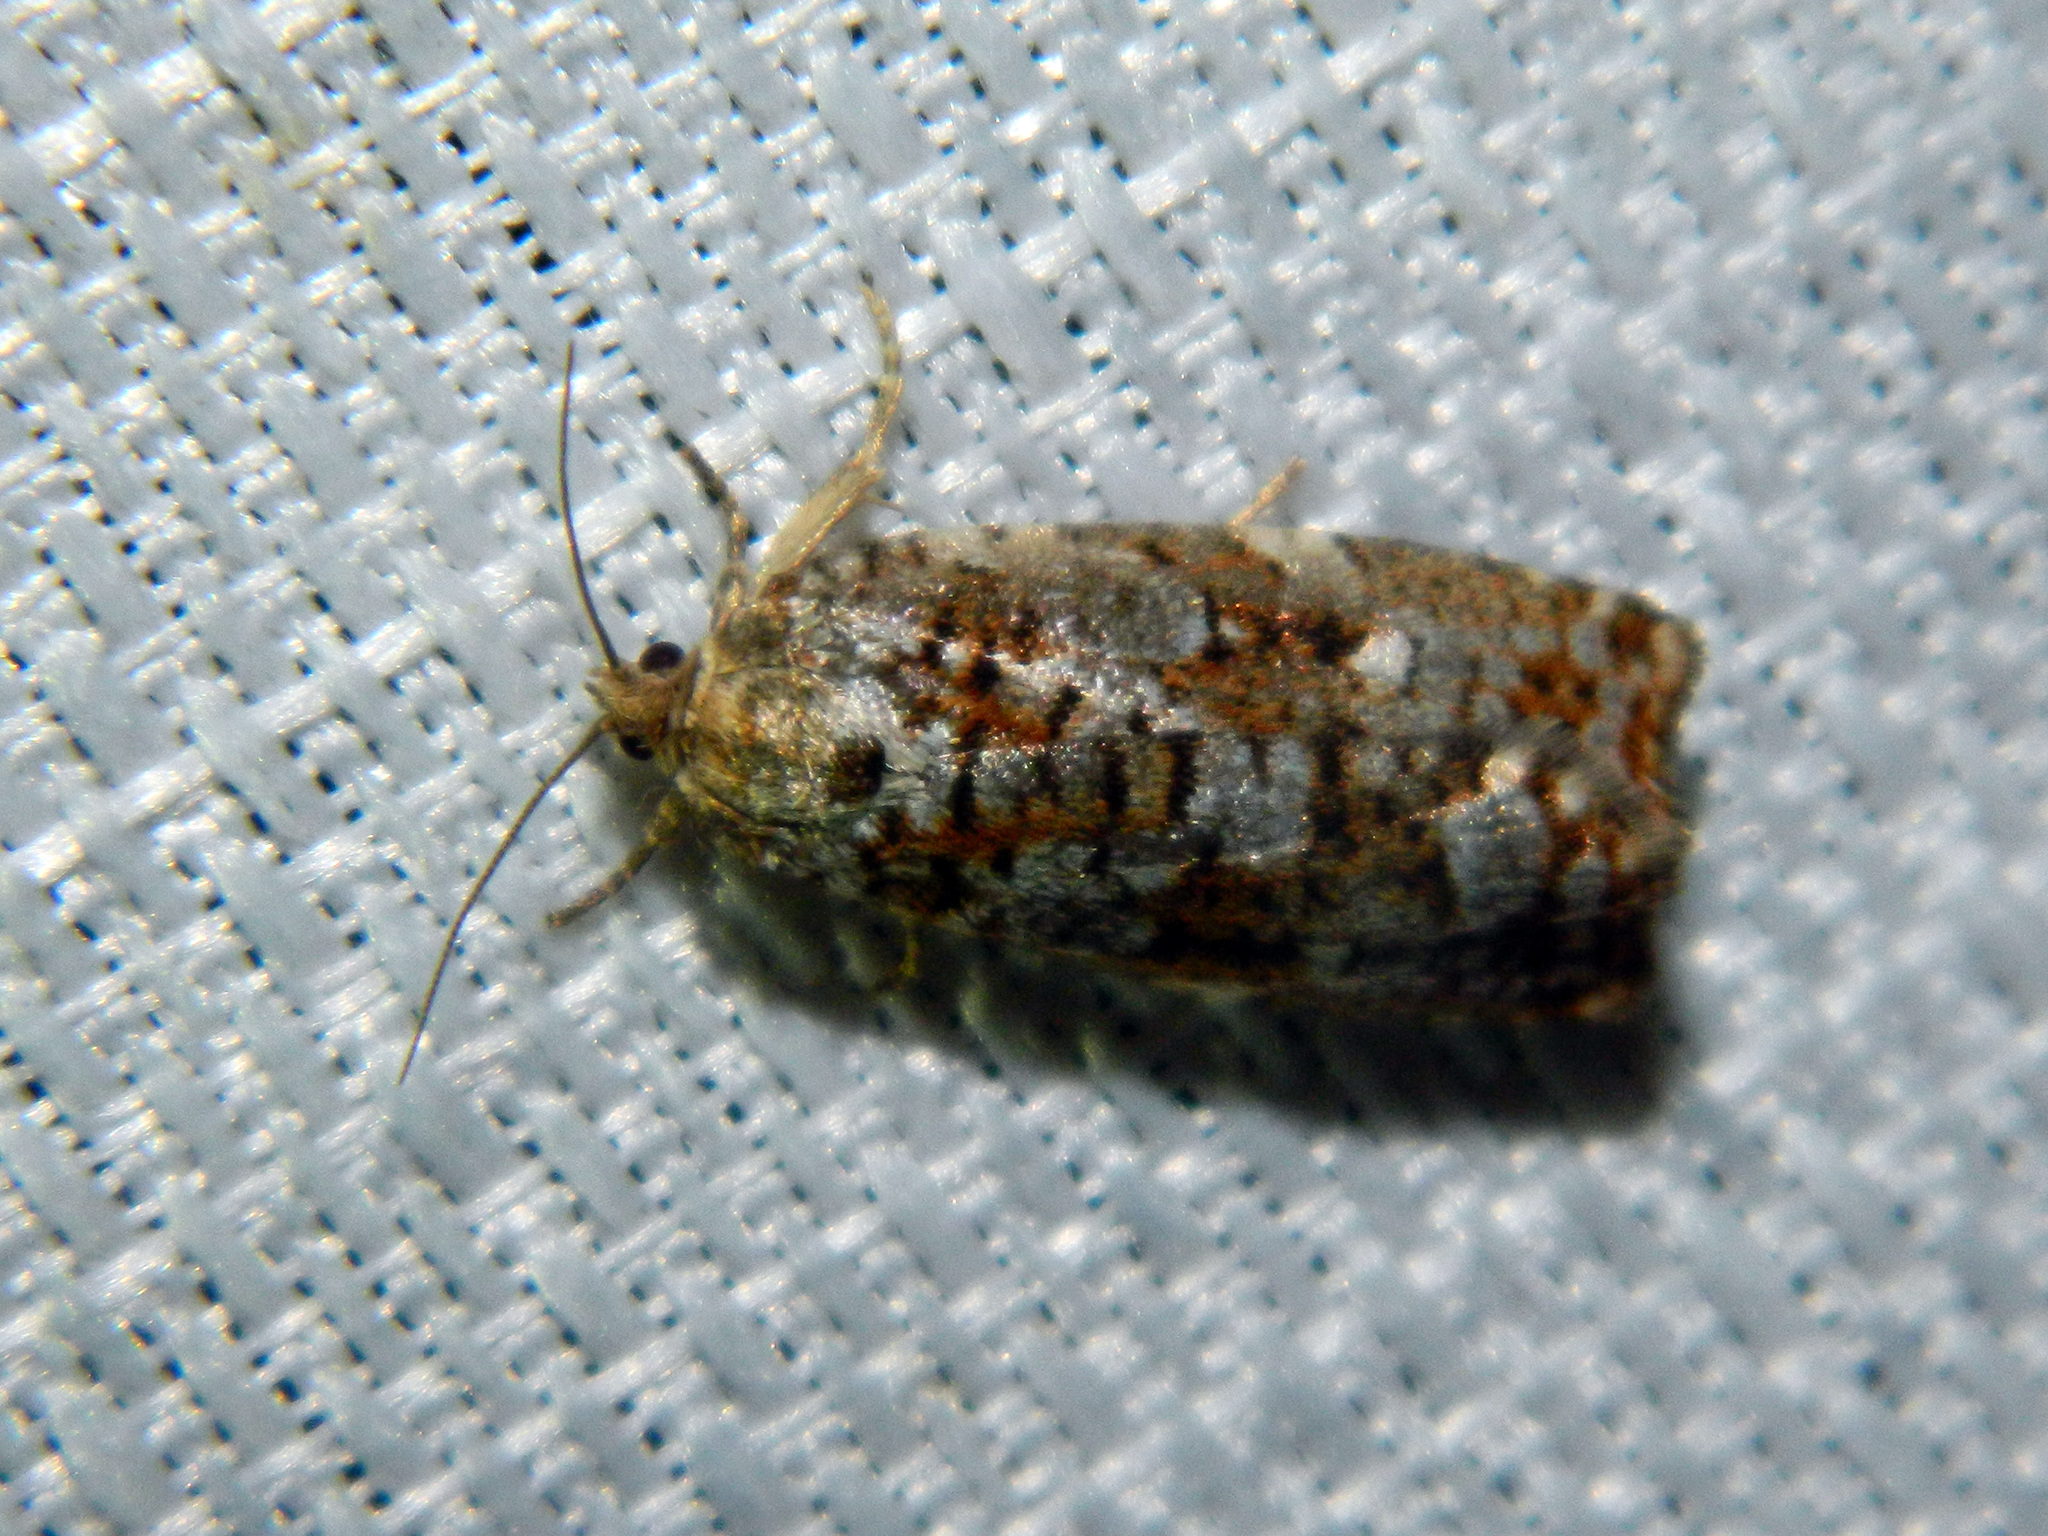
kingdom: Animalia
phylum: Arthropoda
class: Insecta
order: Lepidoptera
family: Tortricidae
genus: Choristoneura
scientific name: Choristoneura fumiferana
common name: Spruce budworm
